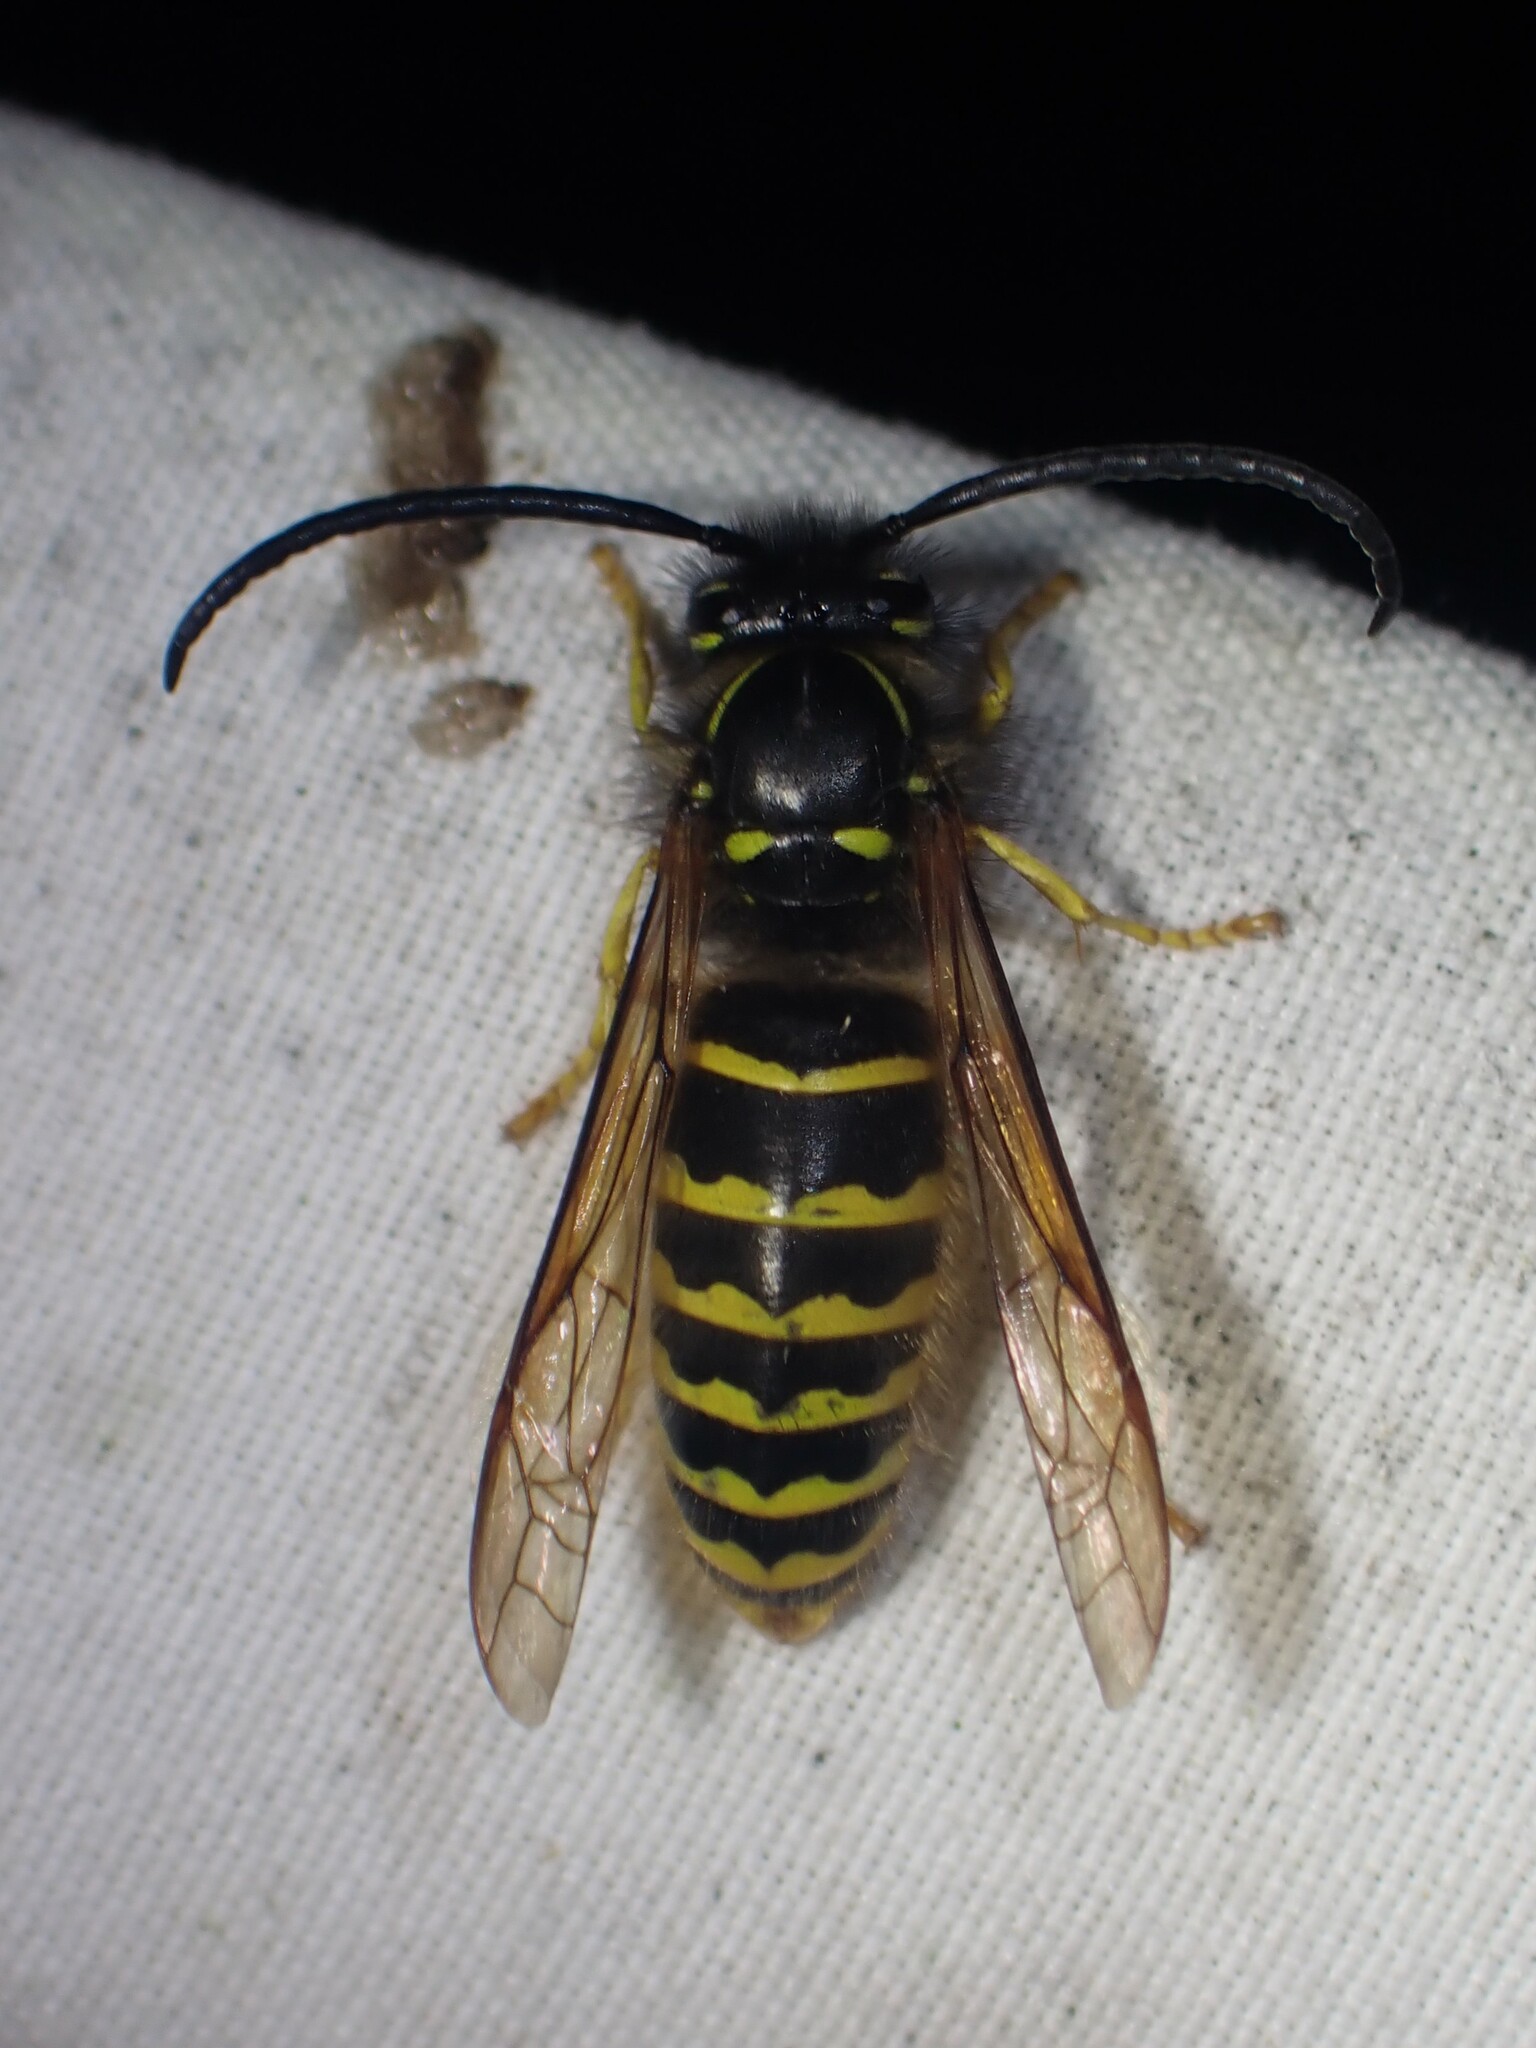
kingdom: Animalia
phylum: Arthropoda
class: Insecta
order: Hymenoptera
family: Vespidae
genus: Dolichovespula
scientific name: Dolichovespula norvegicoides
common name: Northern aerial yellowjacket
